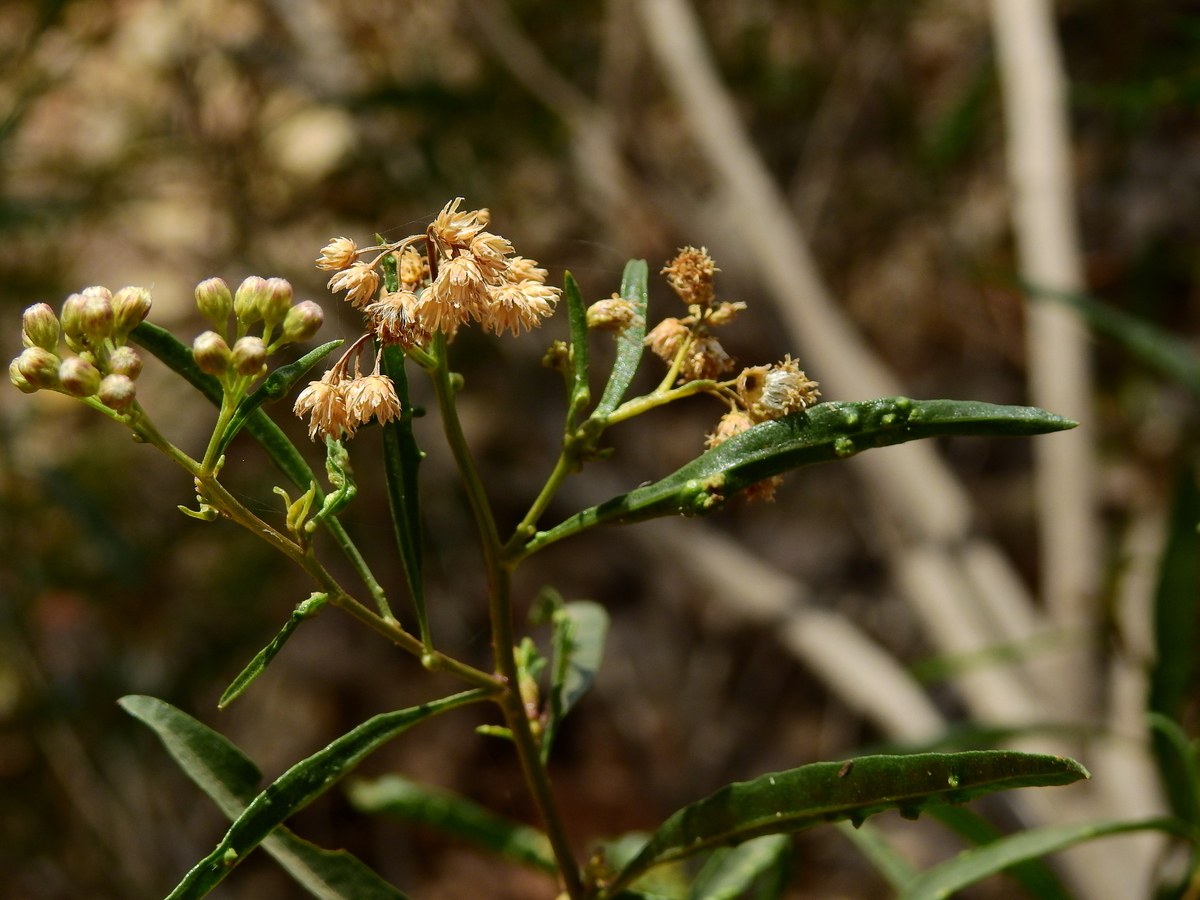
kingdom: Plantae
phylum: Tracheophyta
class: Magnoliopsida
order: Asterales
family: Asteraceae
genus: Baccharis
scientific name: Baccharis salicifolia
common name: Sticky baccharis
